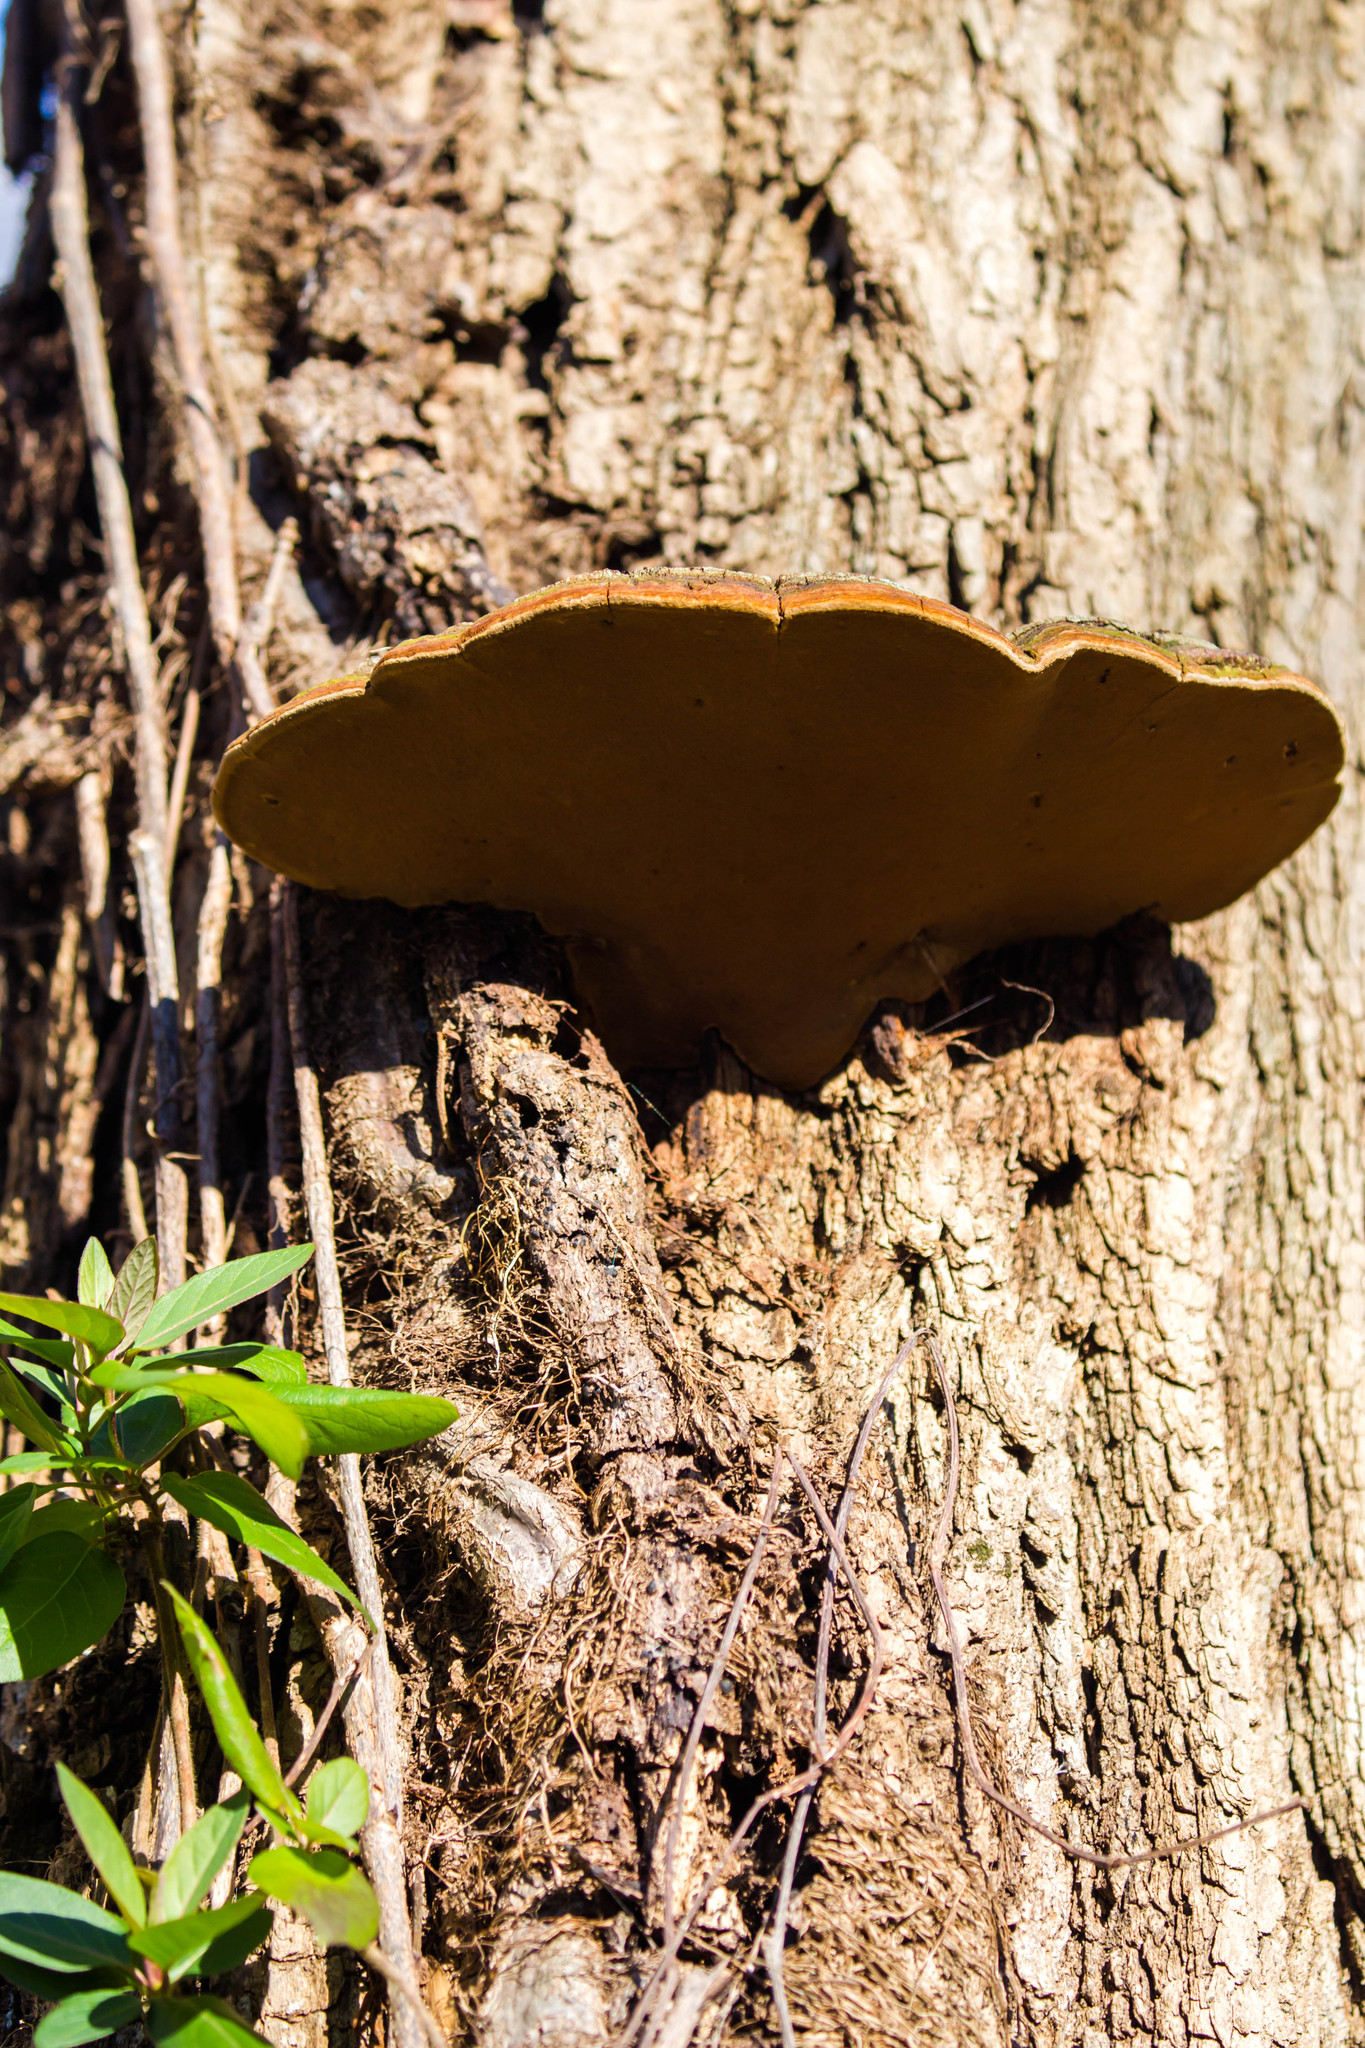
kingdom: Fungi
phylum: Basidiomycota
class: Agaricomycetes
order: Hymenochaetales
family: Hymenochaetaceae
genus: Phellinus
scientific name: Phellinus robiniae
